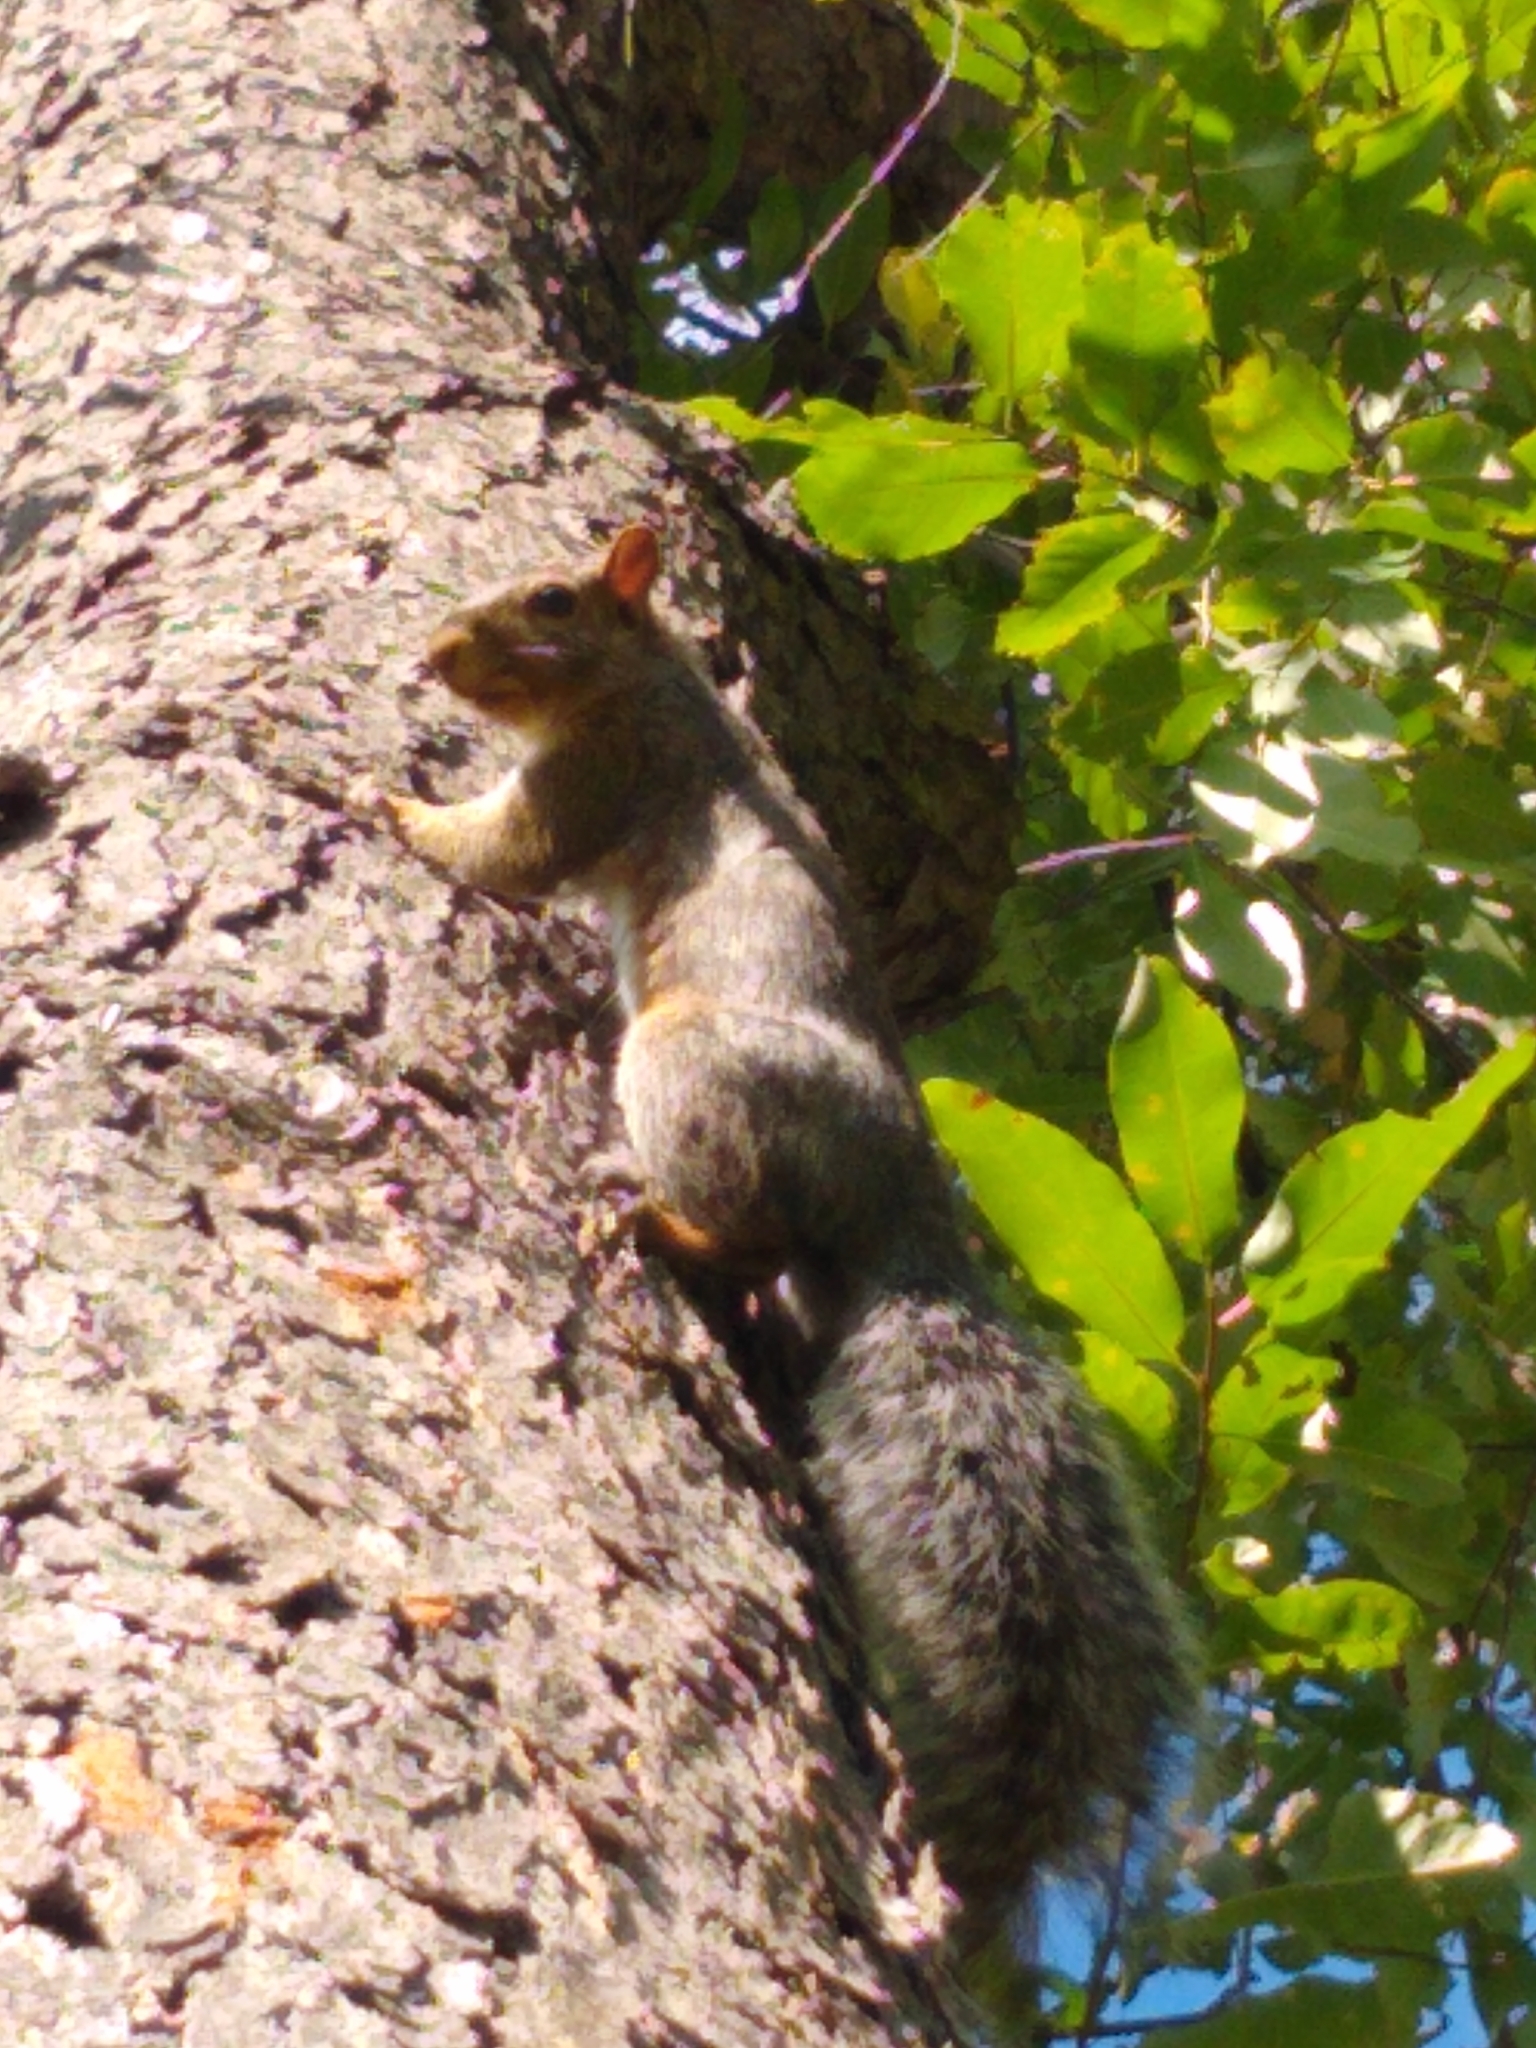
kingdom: Animalia
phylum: Chordata
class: Mammalia
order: Rodentia
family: Sciuridae
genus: Sciurus
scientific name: Sciurus carolinensis
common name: Eastern gray squirrel
